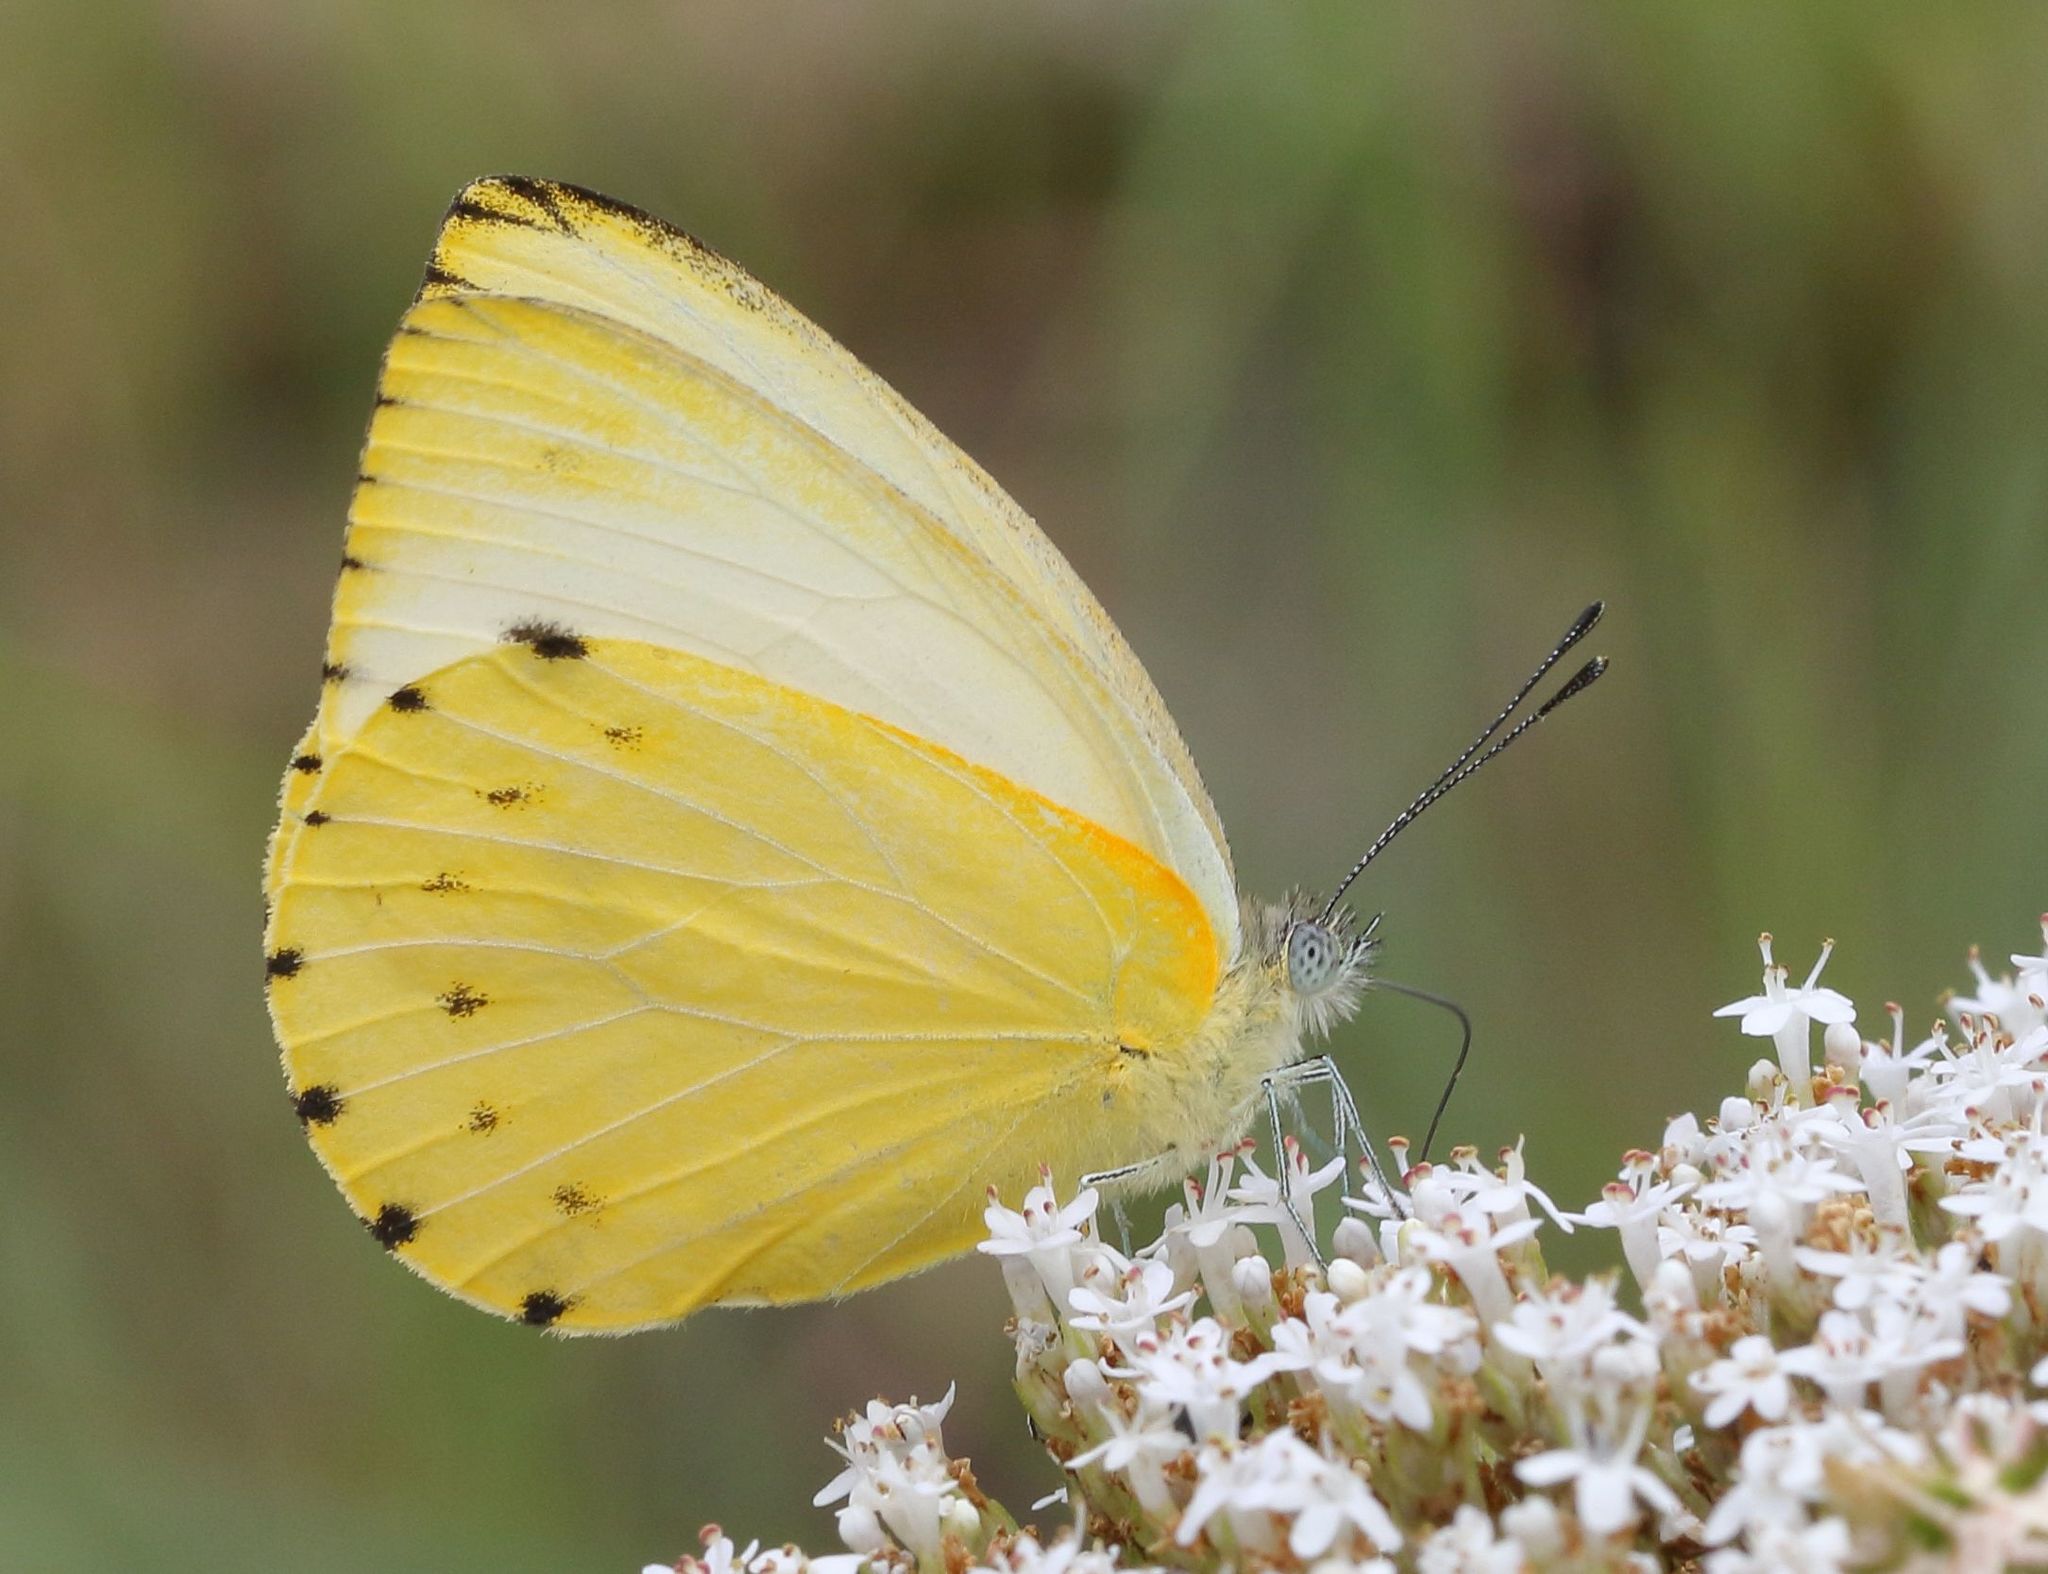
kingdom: Animalia
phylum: Arthropoda
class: Insecta
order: Lepidoptera
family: Pieridae
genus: Dixeia
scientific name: Dixeia pigea
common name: Ant-heap small white
